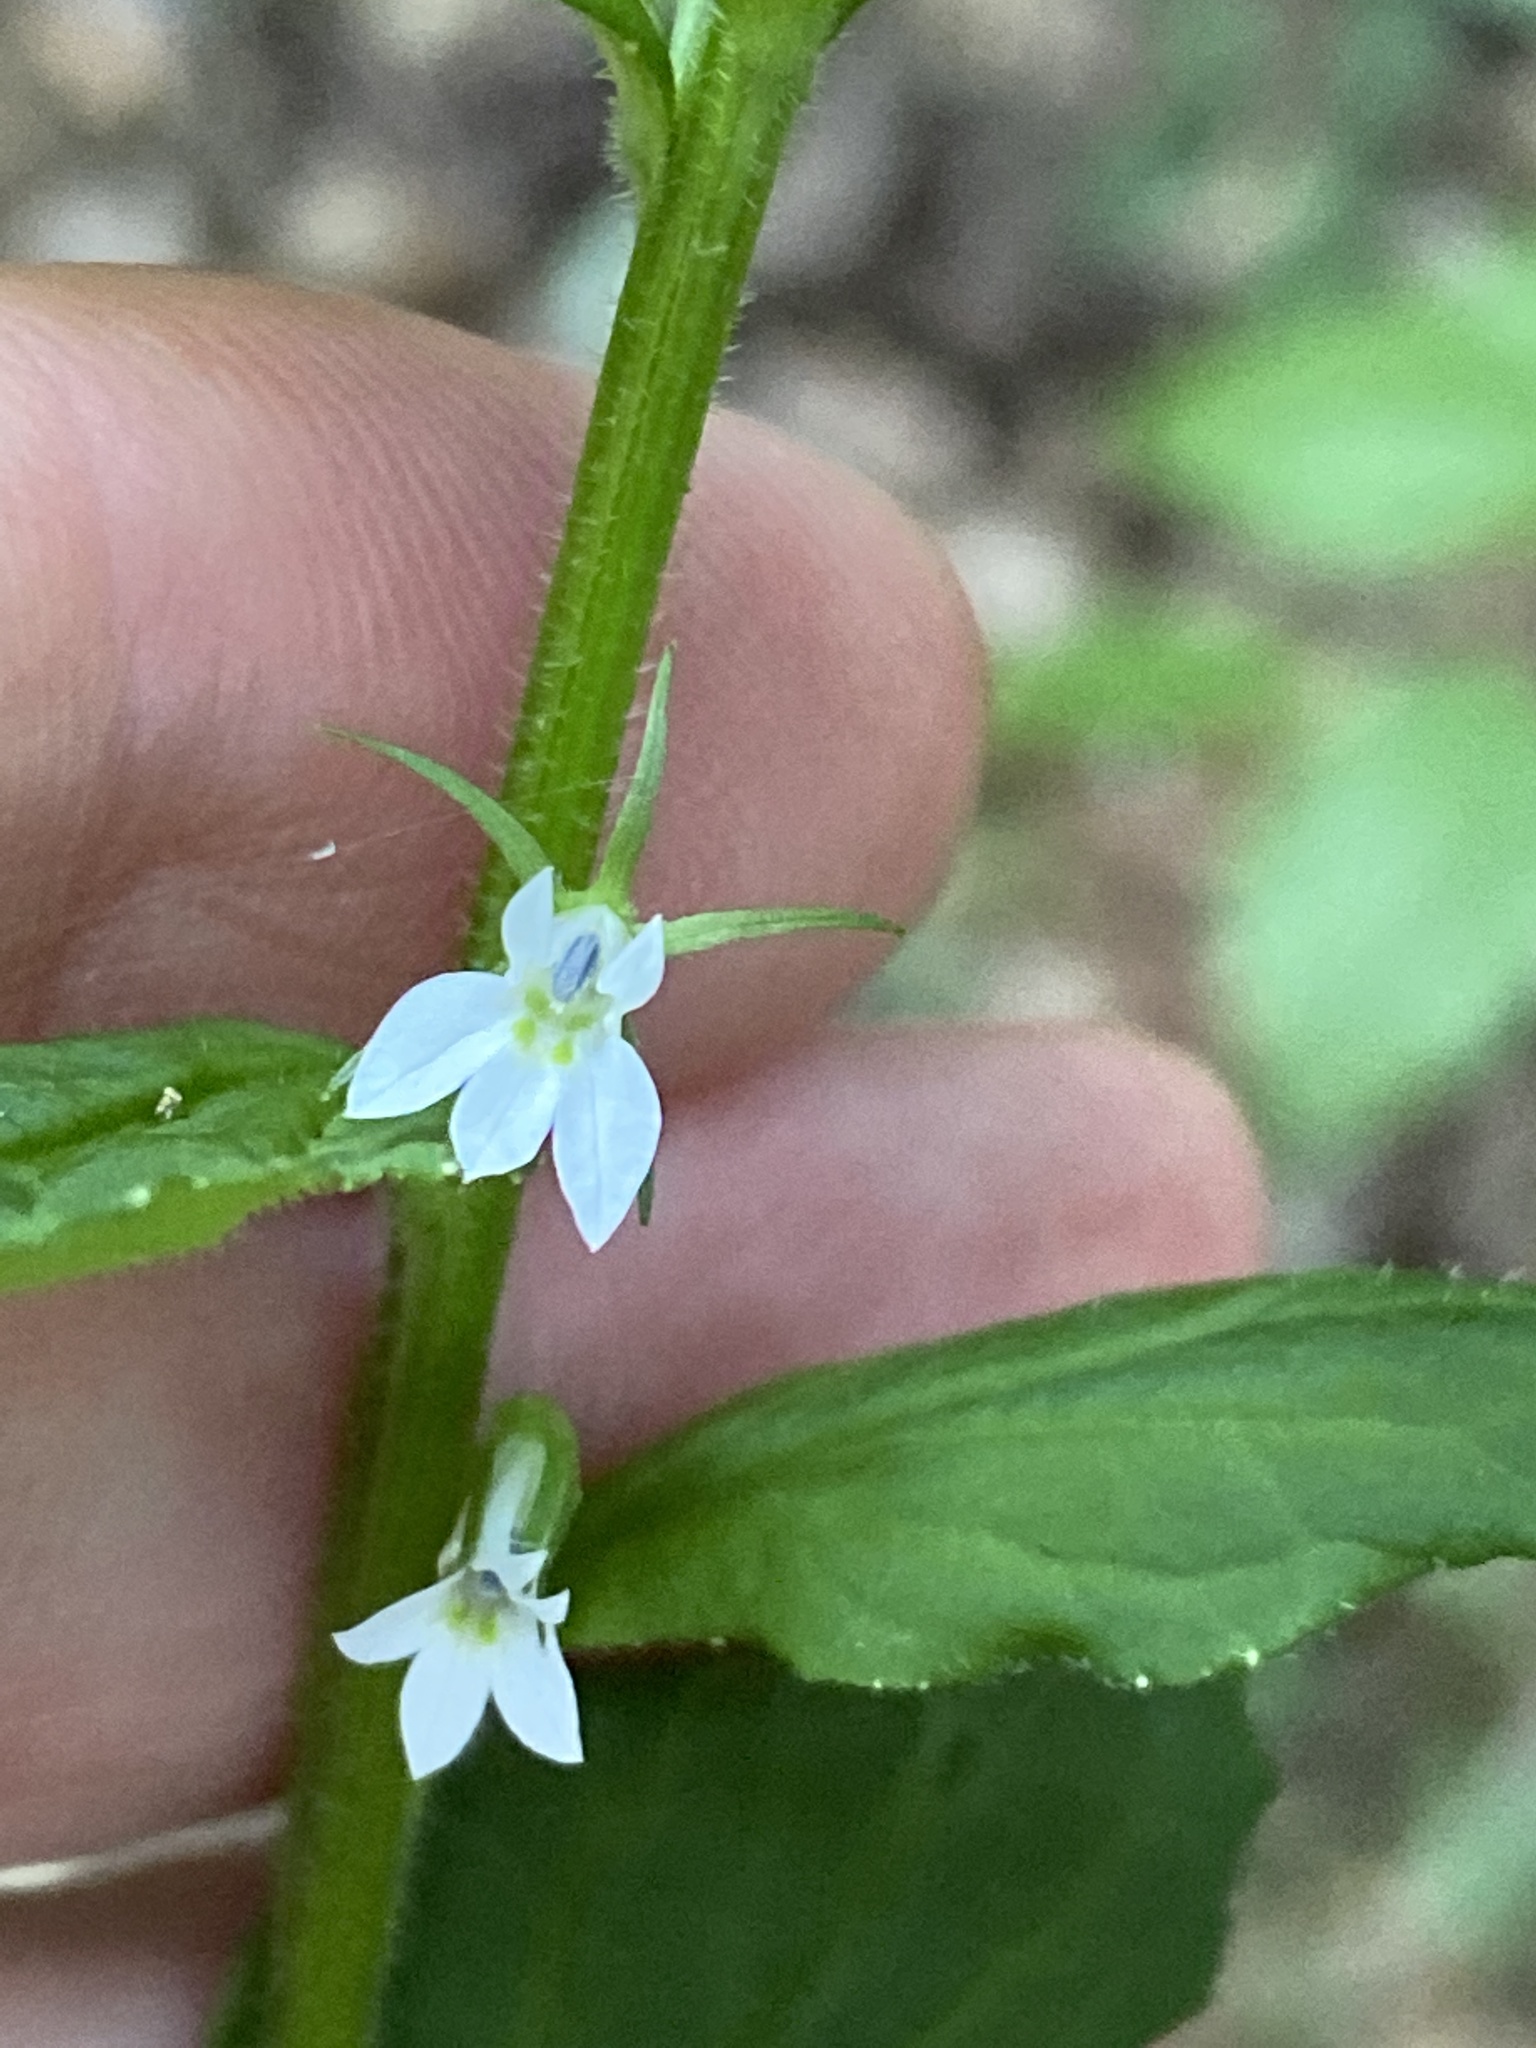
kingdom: Plantae
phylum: Tracheophyta
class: Magnoliopsida
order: Asterales
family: Campanulaceae
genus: Lobelia
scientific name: Lobelia inflata
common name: Indian tobacco
